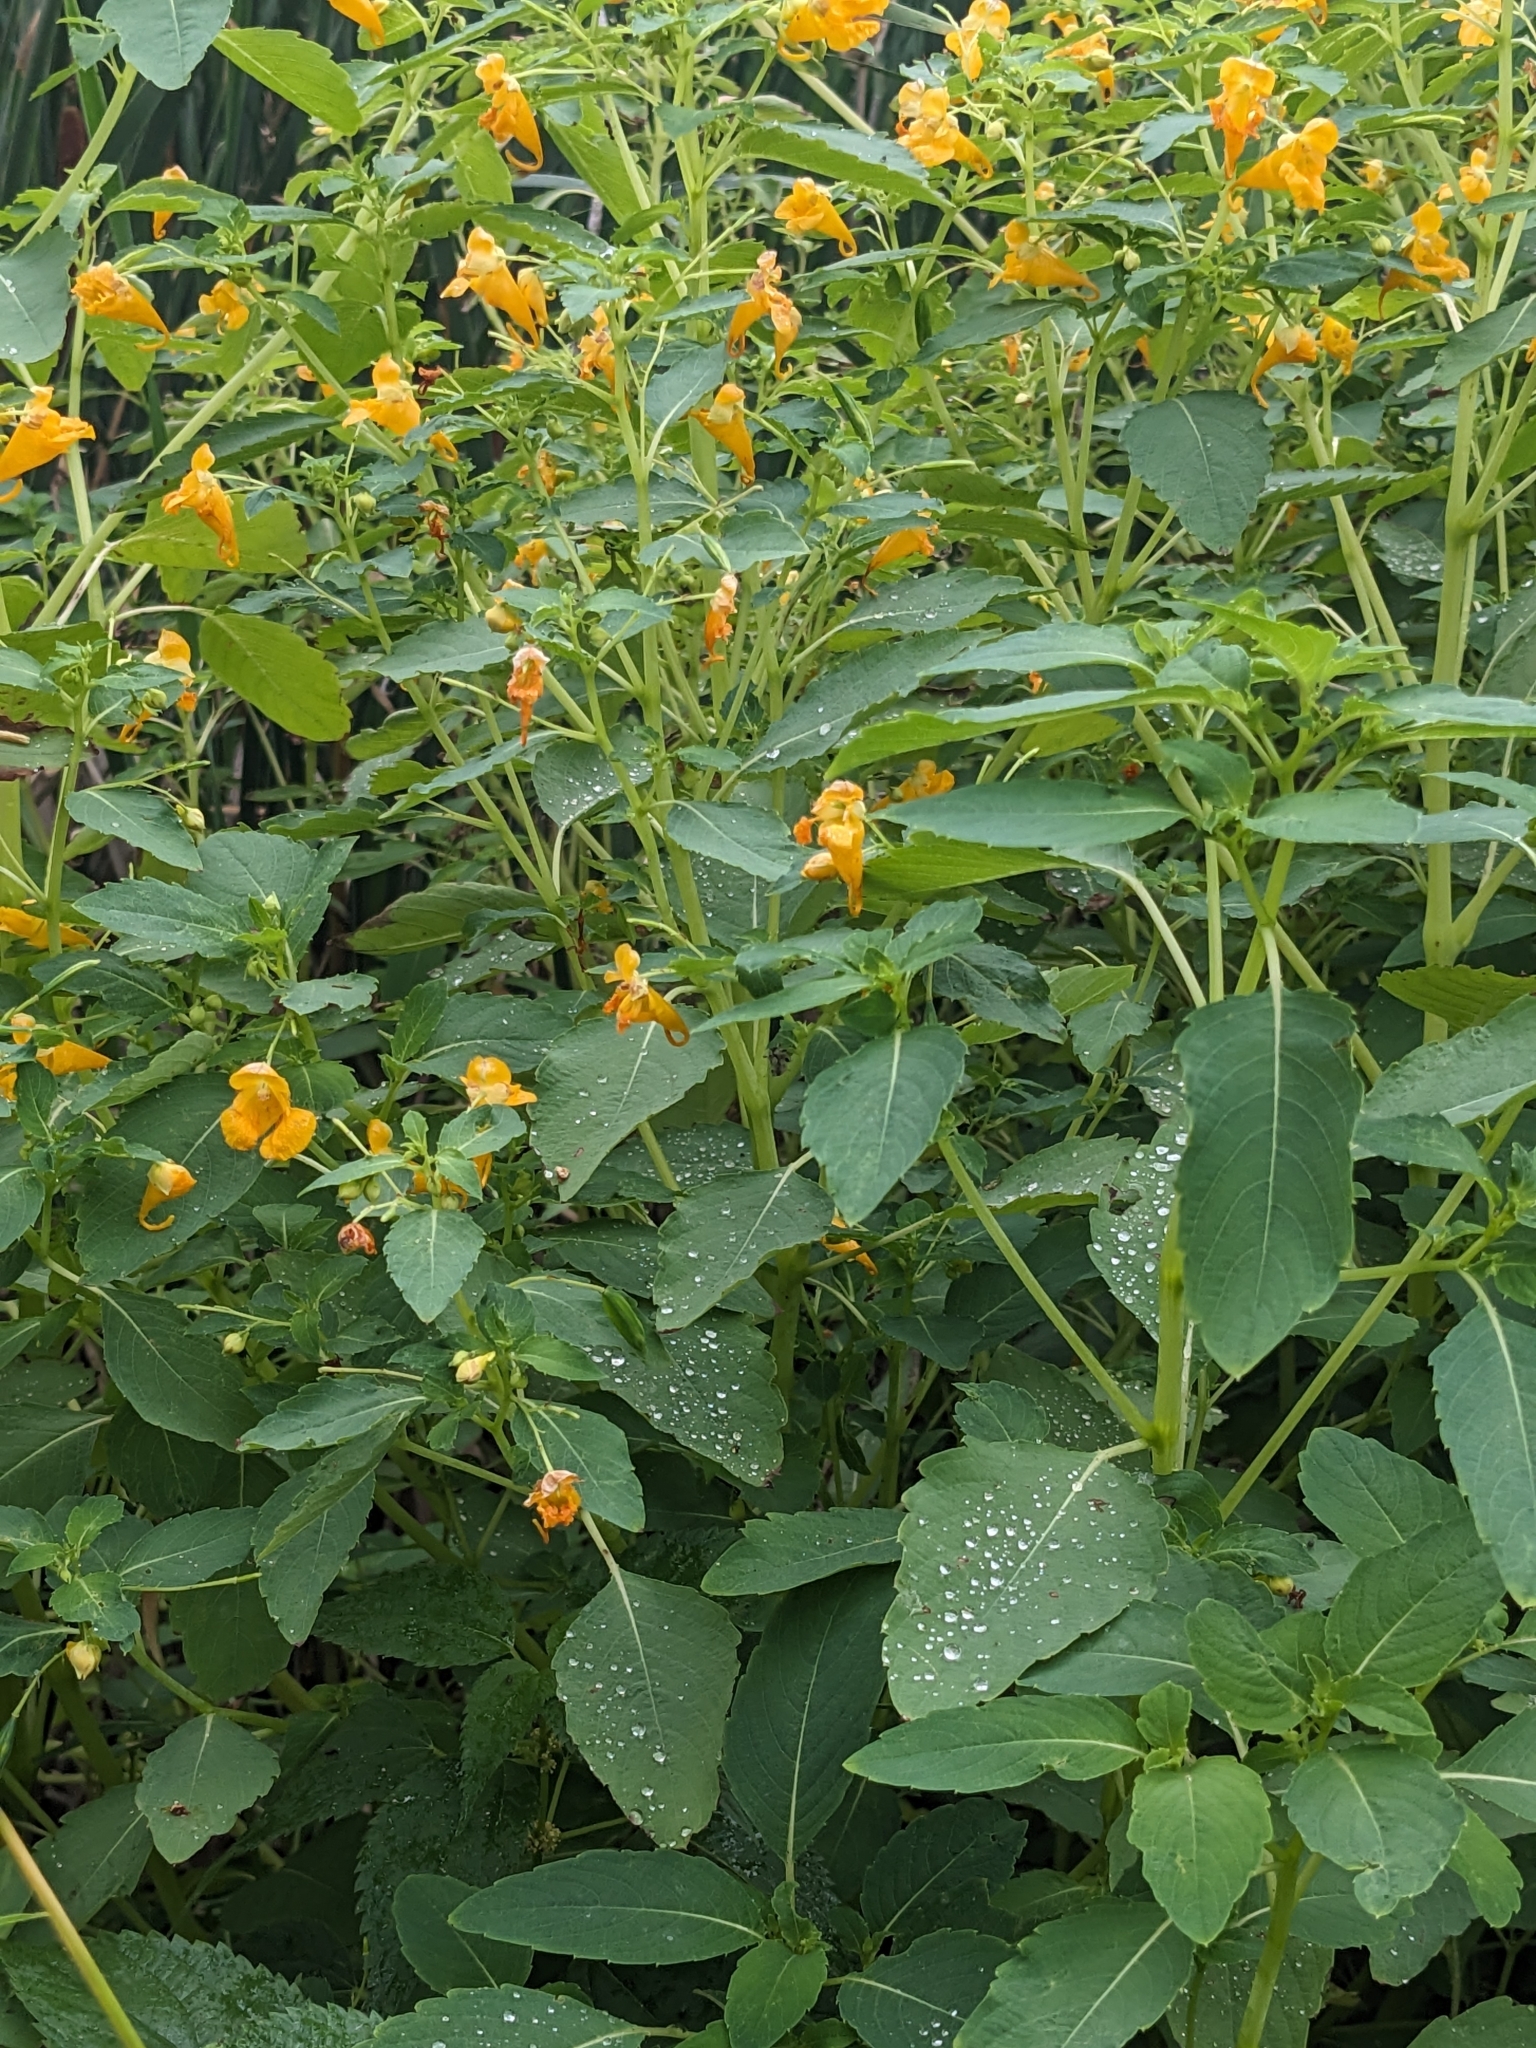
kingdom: Plantae
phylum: Tracheophyta
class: Magnoliopsida
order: Ericales
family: Balsaminaceae
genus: Impatiens
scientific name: Impatiens capensis
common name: Orange balsam
